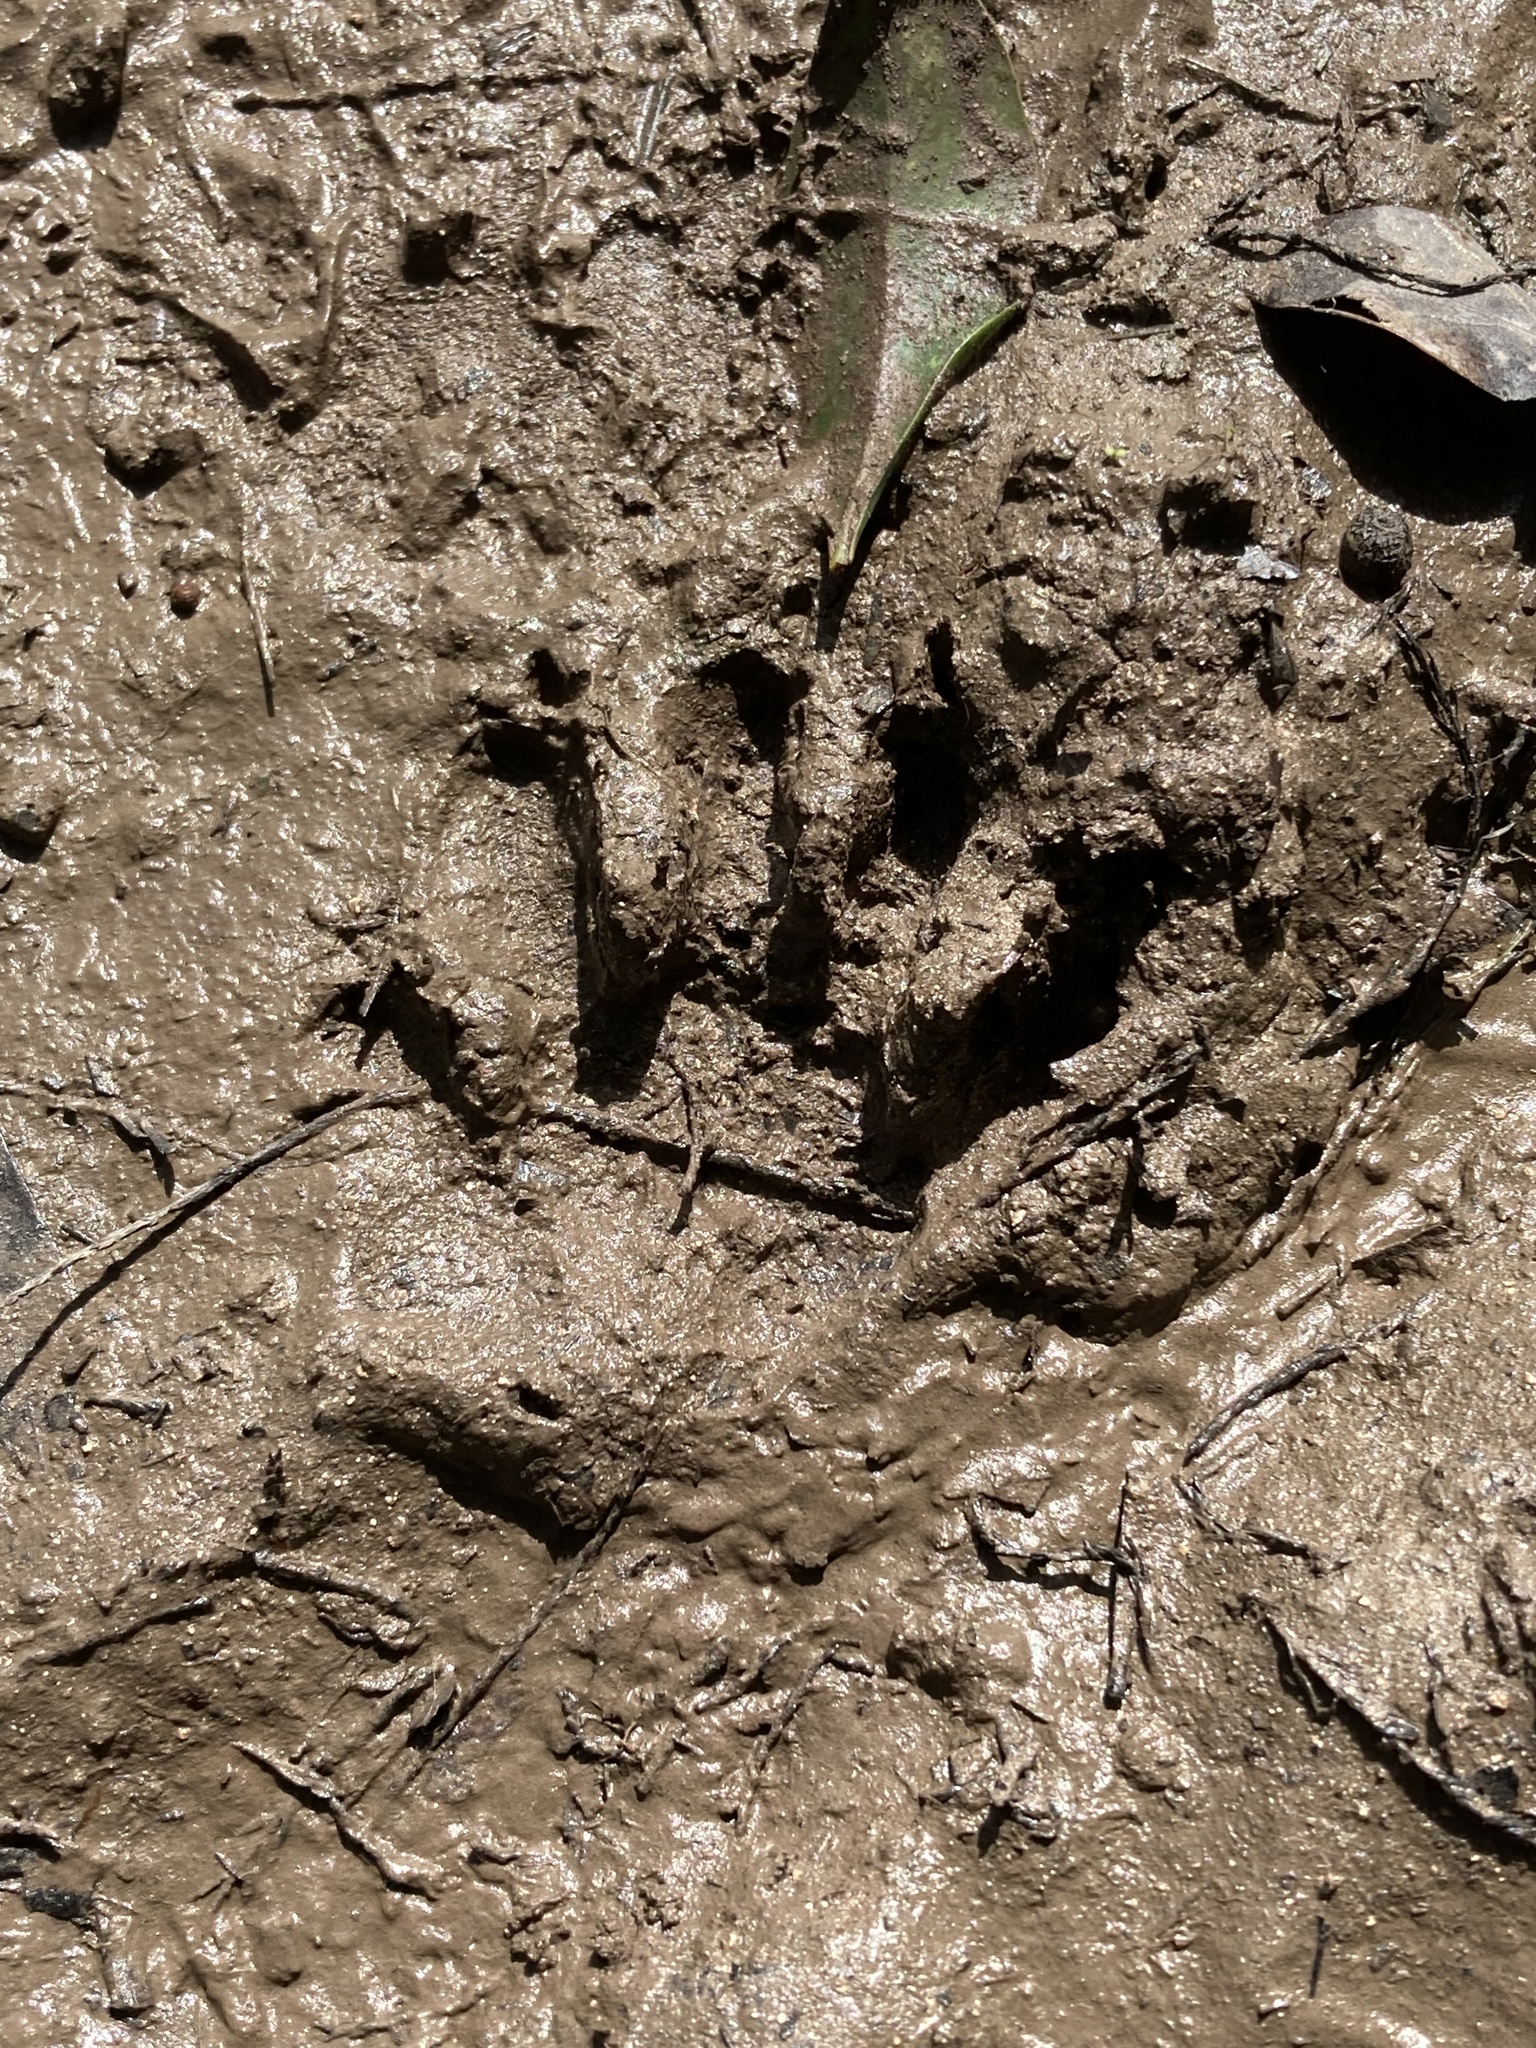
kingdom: Animalia
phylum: Chordata
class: Mammalia
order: Carnivora
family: Procyonidae
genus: Procyon
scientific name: Procyon lotor
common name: Raccoon
